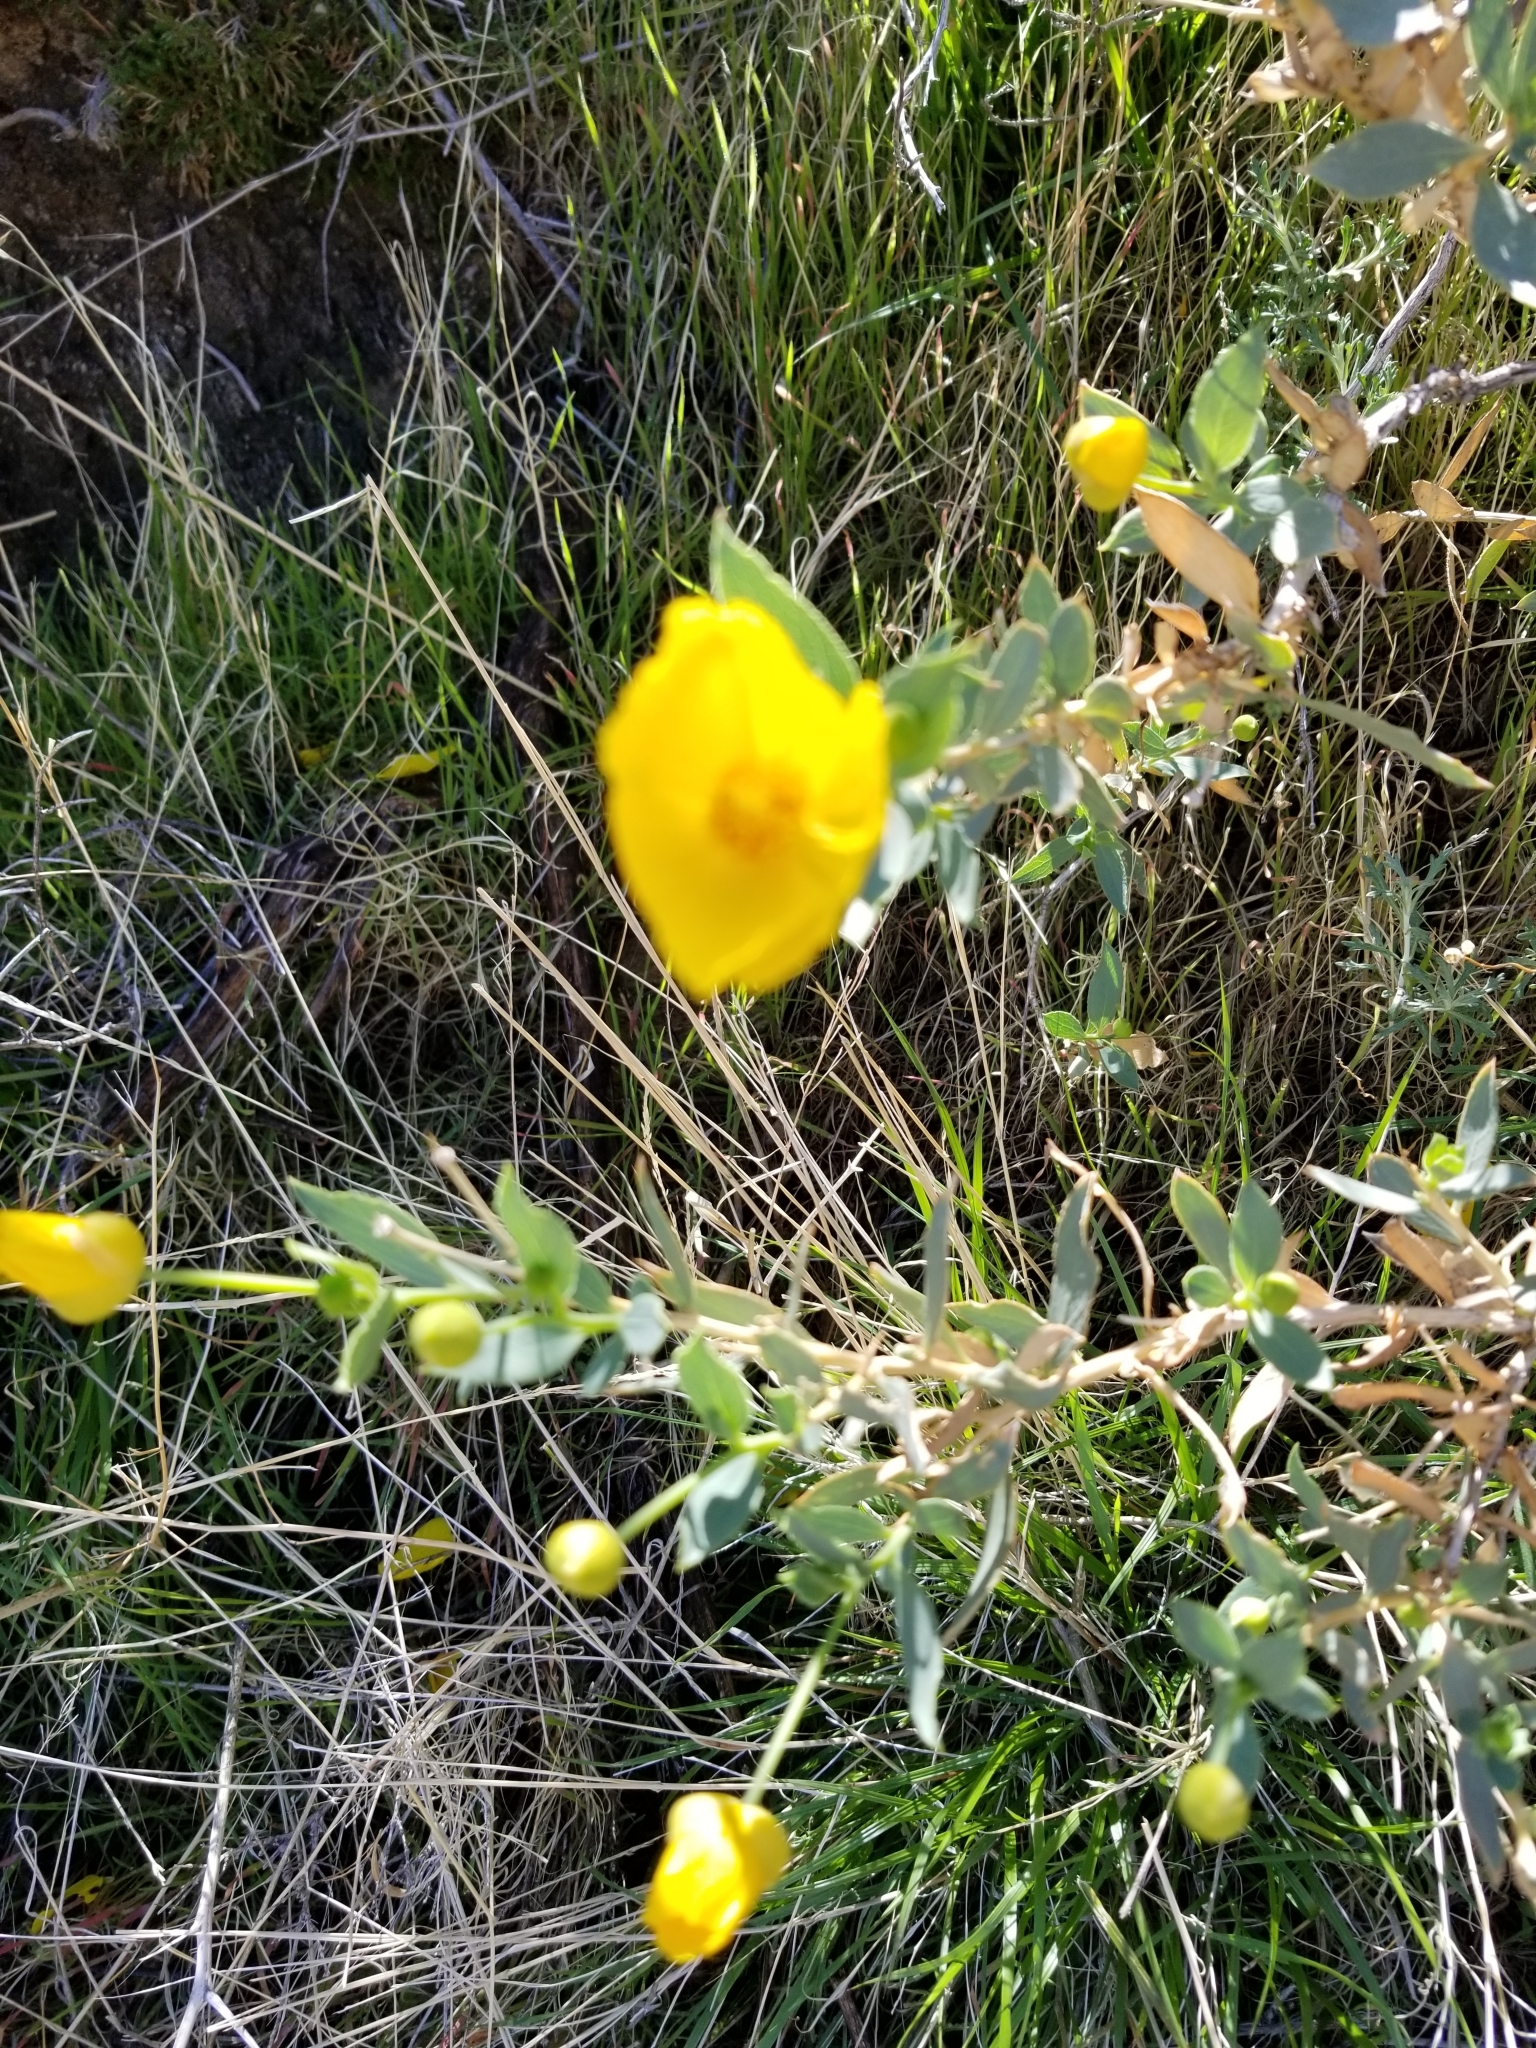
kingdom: Plantae
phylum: Tracheophyta
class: Magnoliopsida
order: Ranunculales
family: Papaveraceae
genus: Dendromecon
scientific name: Dendromecon rigida
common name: Tree poppy
